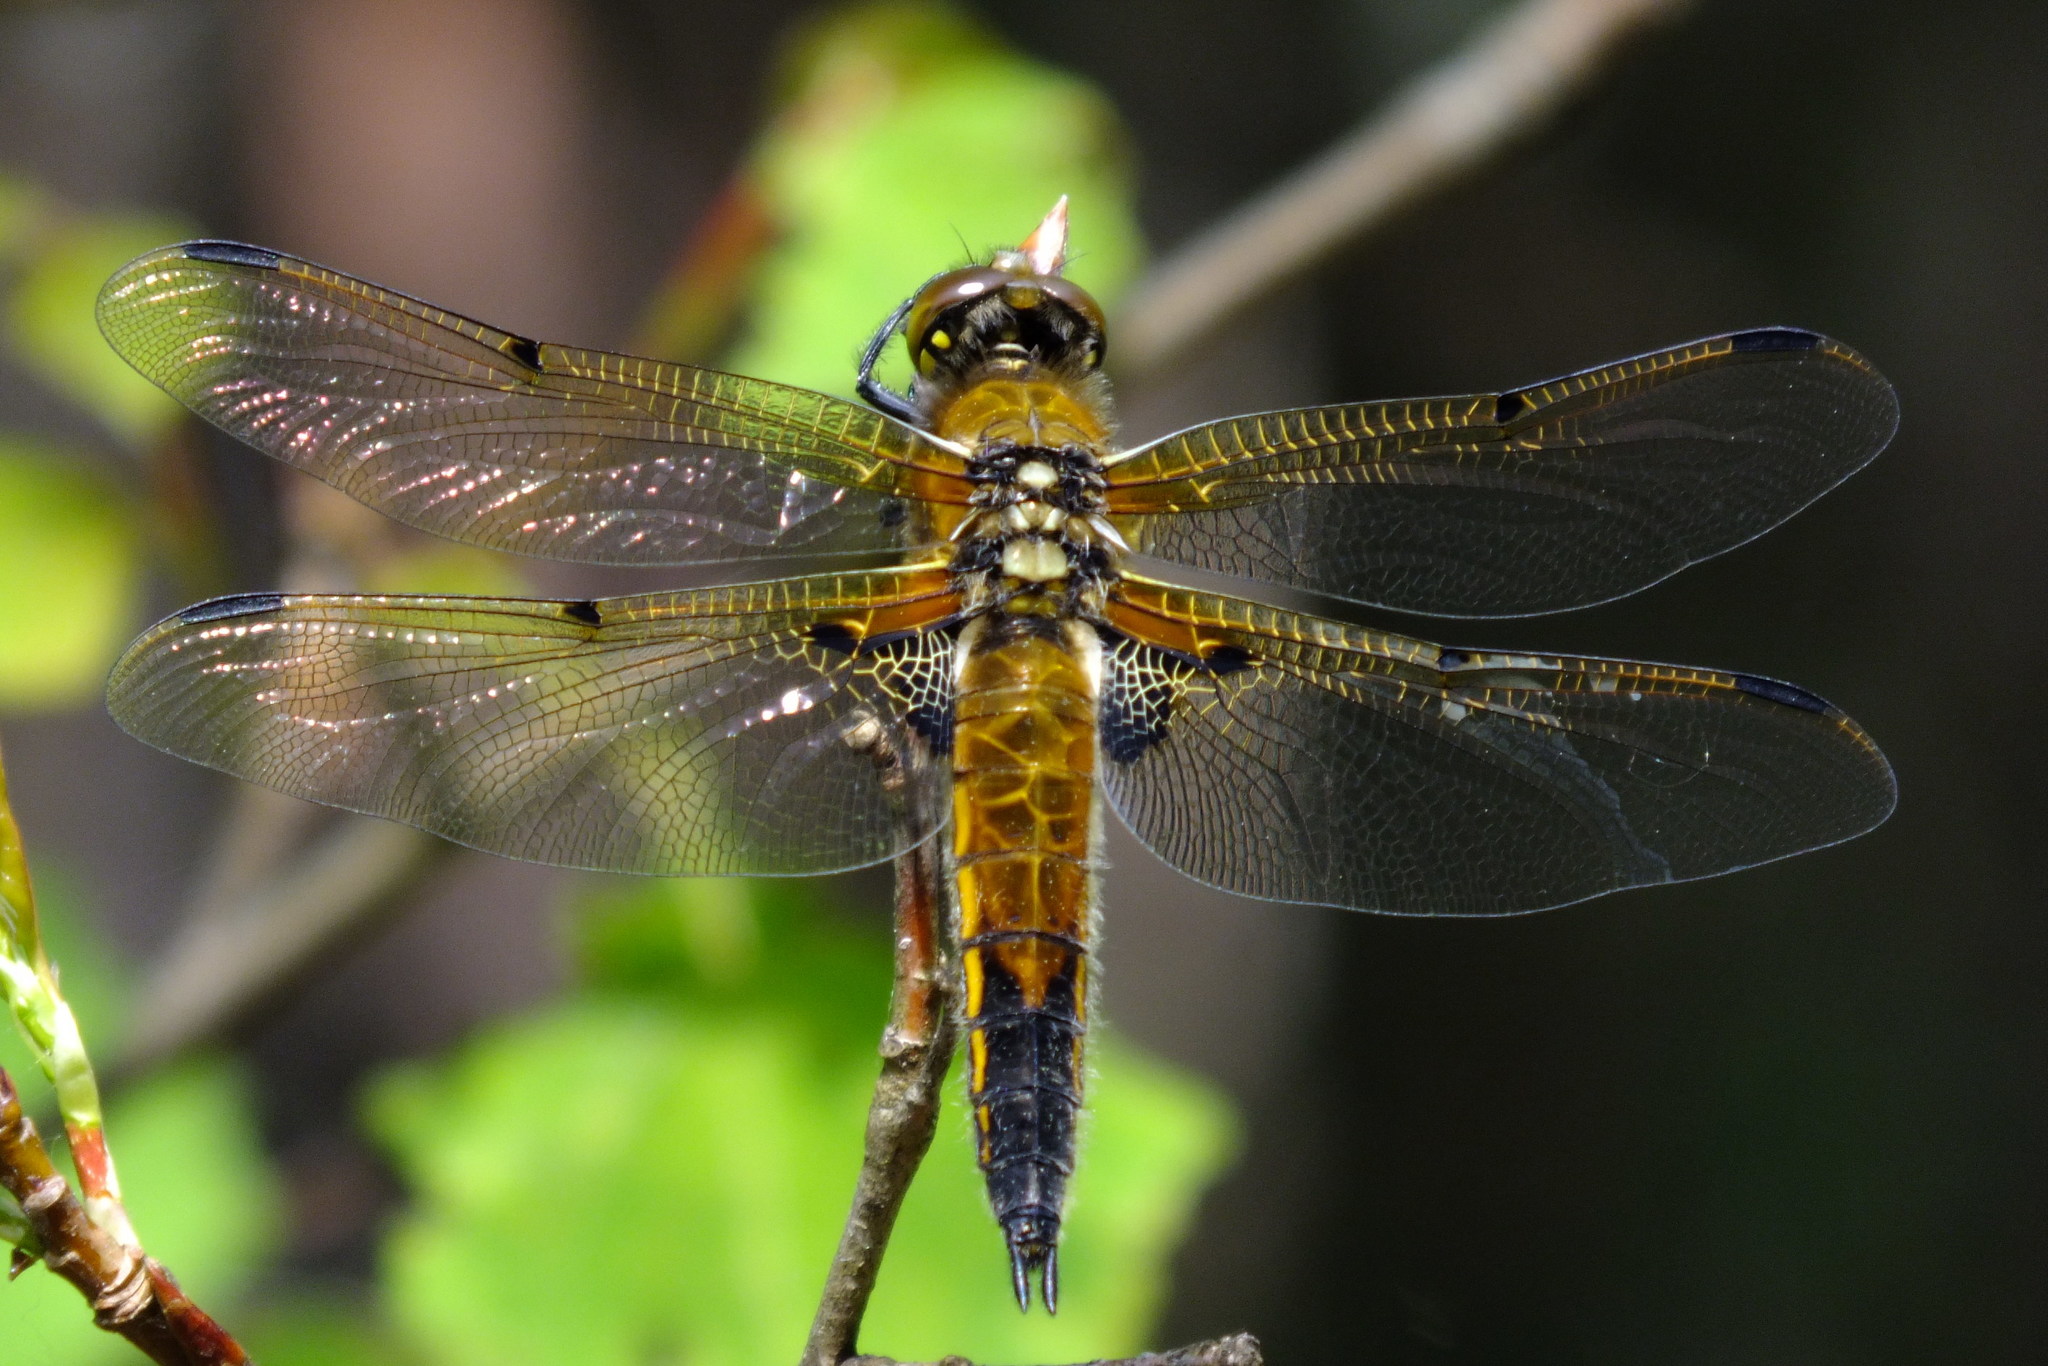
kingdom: Animalia
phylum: Arthropoda
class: Insecta
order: Odonata
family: Libellulidae
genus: Libellula
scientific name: Libellula quadrimaculata
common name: Four-spotted chaser
